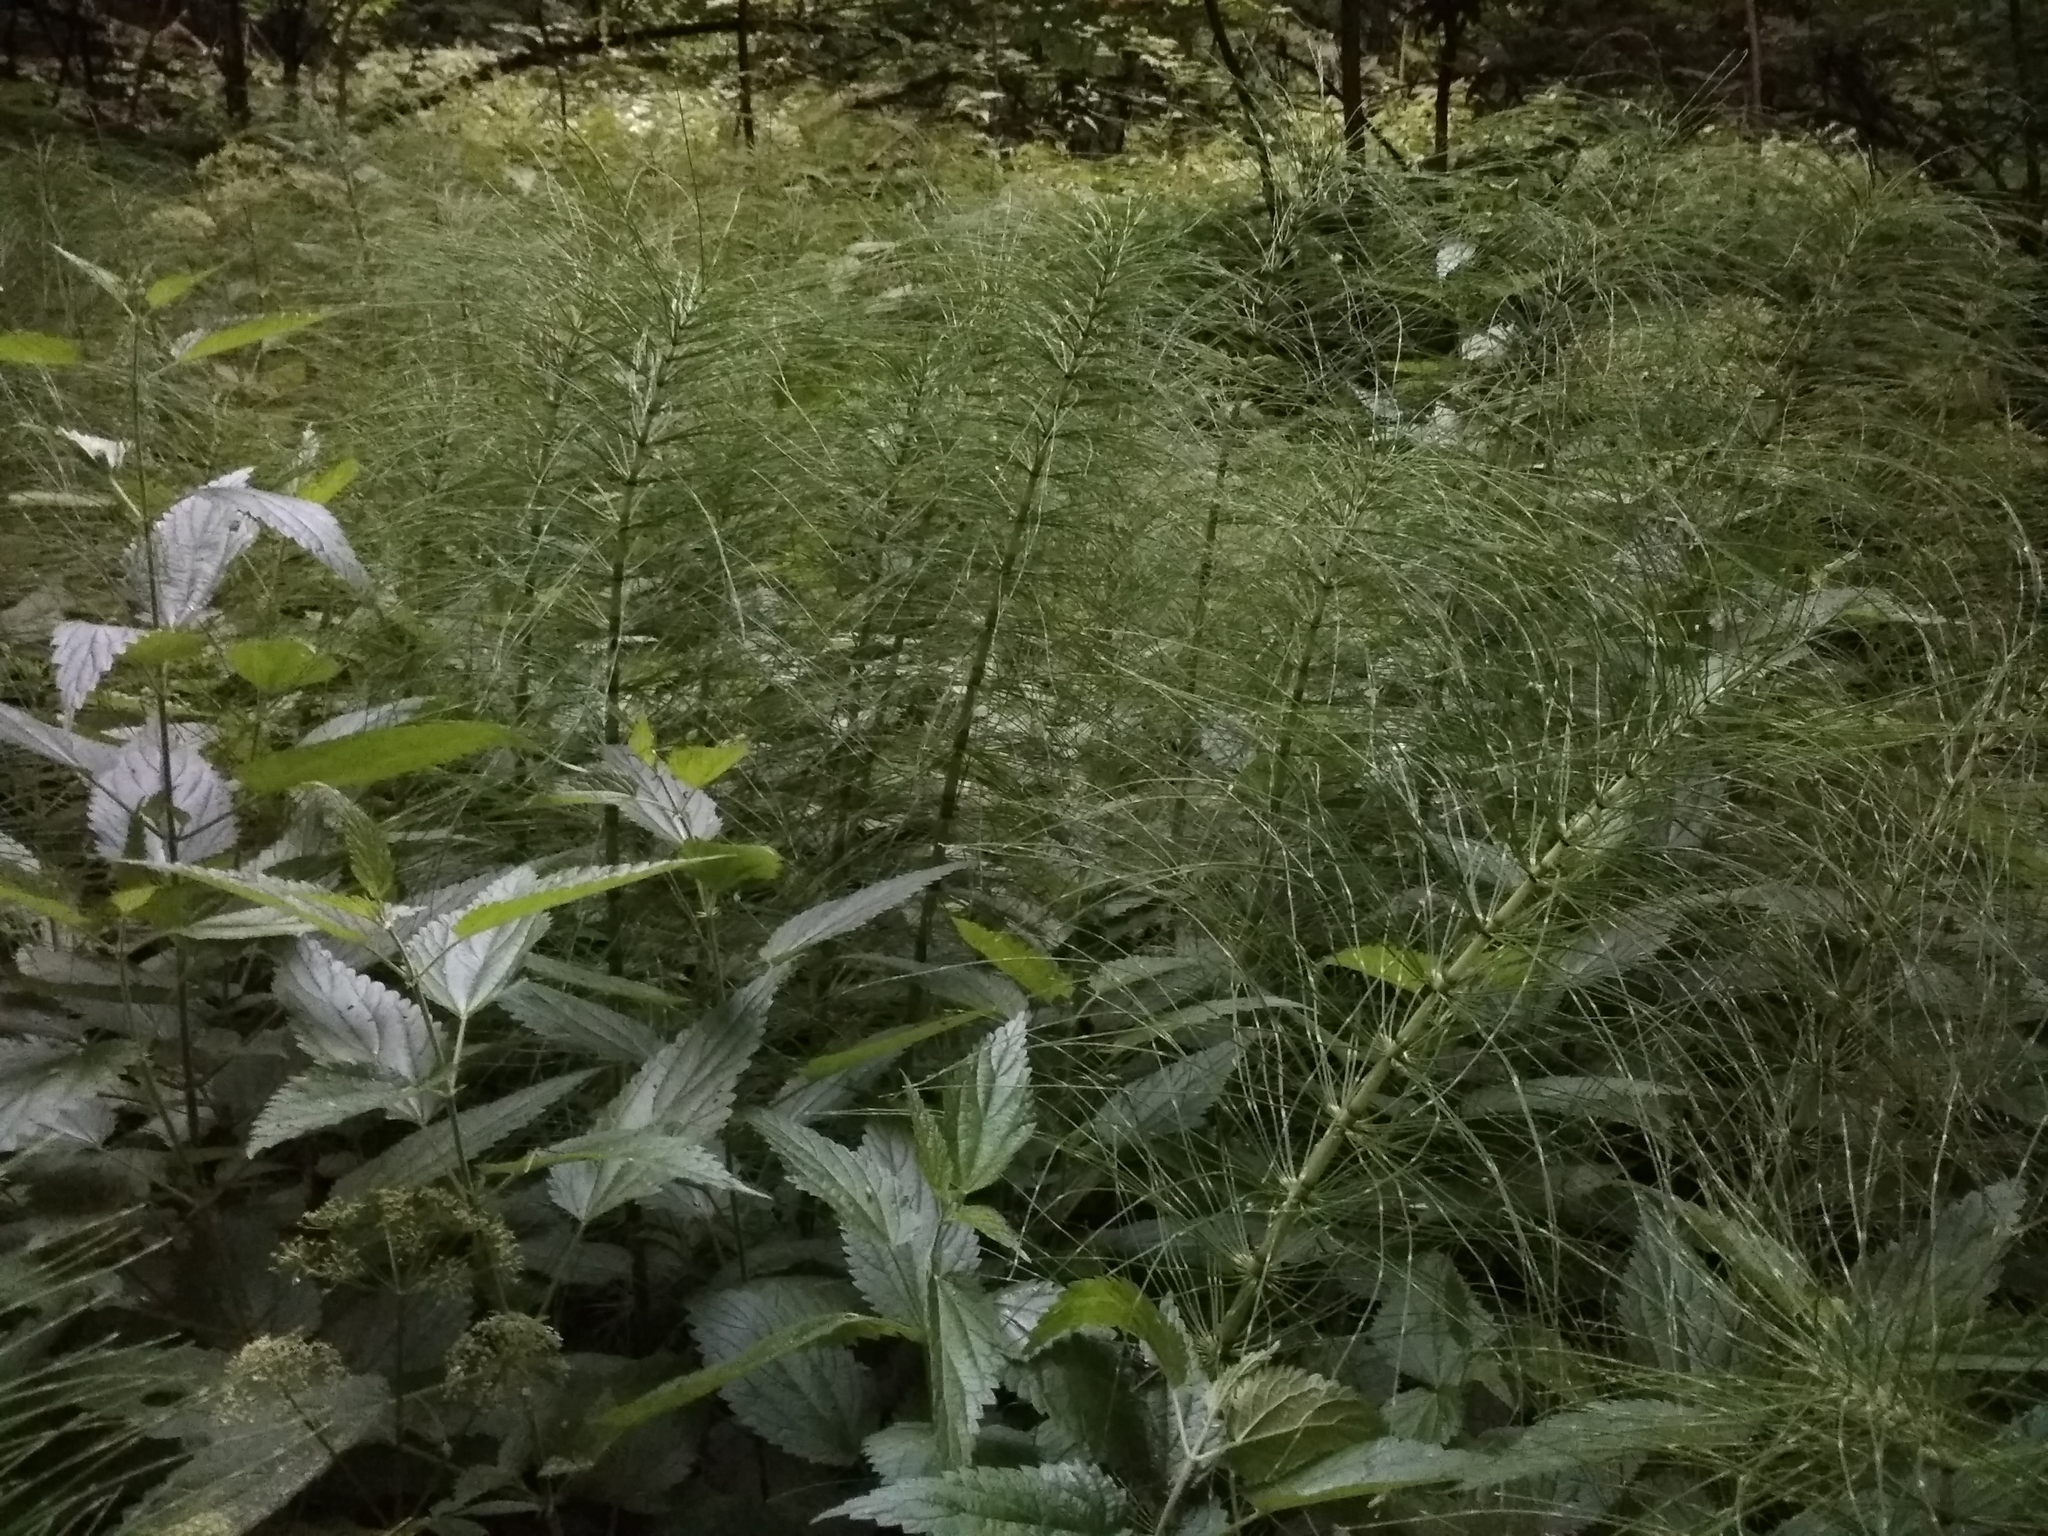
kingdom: Plantae
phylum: Tracheophyta
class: Polypodiopsida
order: Equisetales
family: Equisetaceae
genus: Equisetum
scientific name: Equisetum telmateia
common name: Great horsetail
